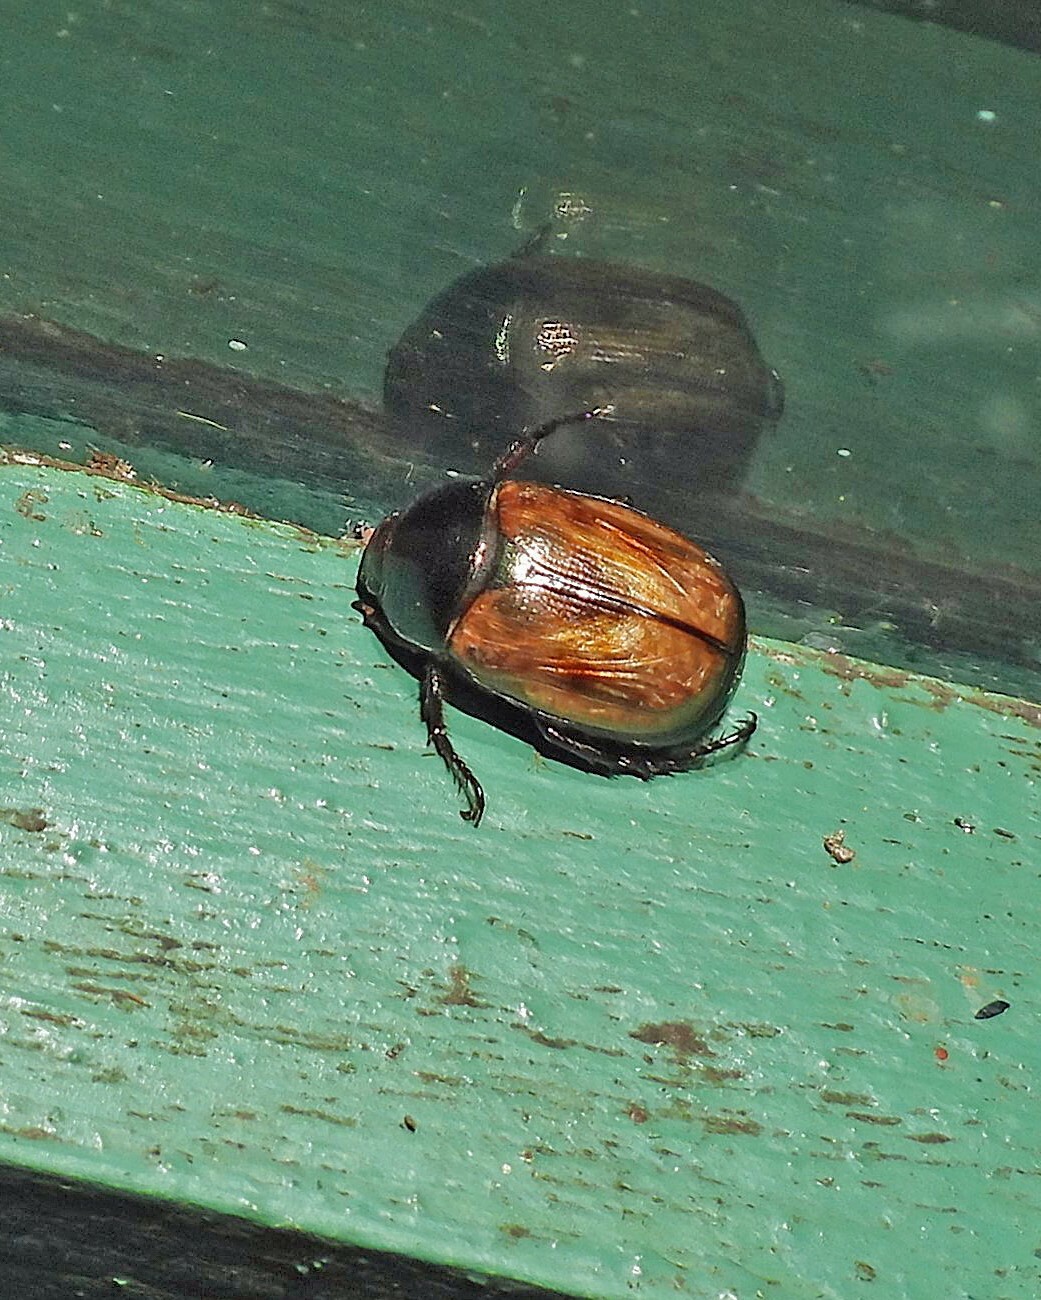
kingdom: Animalia
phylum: Arthropoda
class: Insecta
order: Coleoptera
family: Scarabaeidae
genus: Paranomala
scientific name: Paranomala testaceipennis
